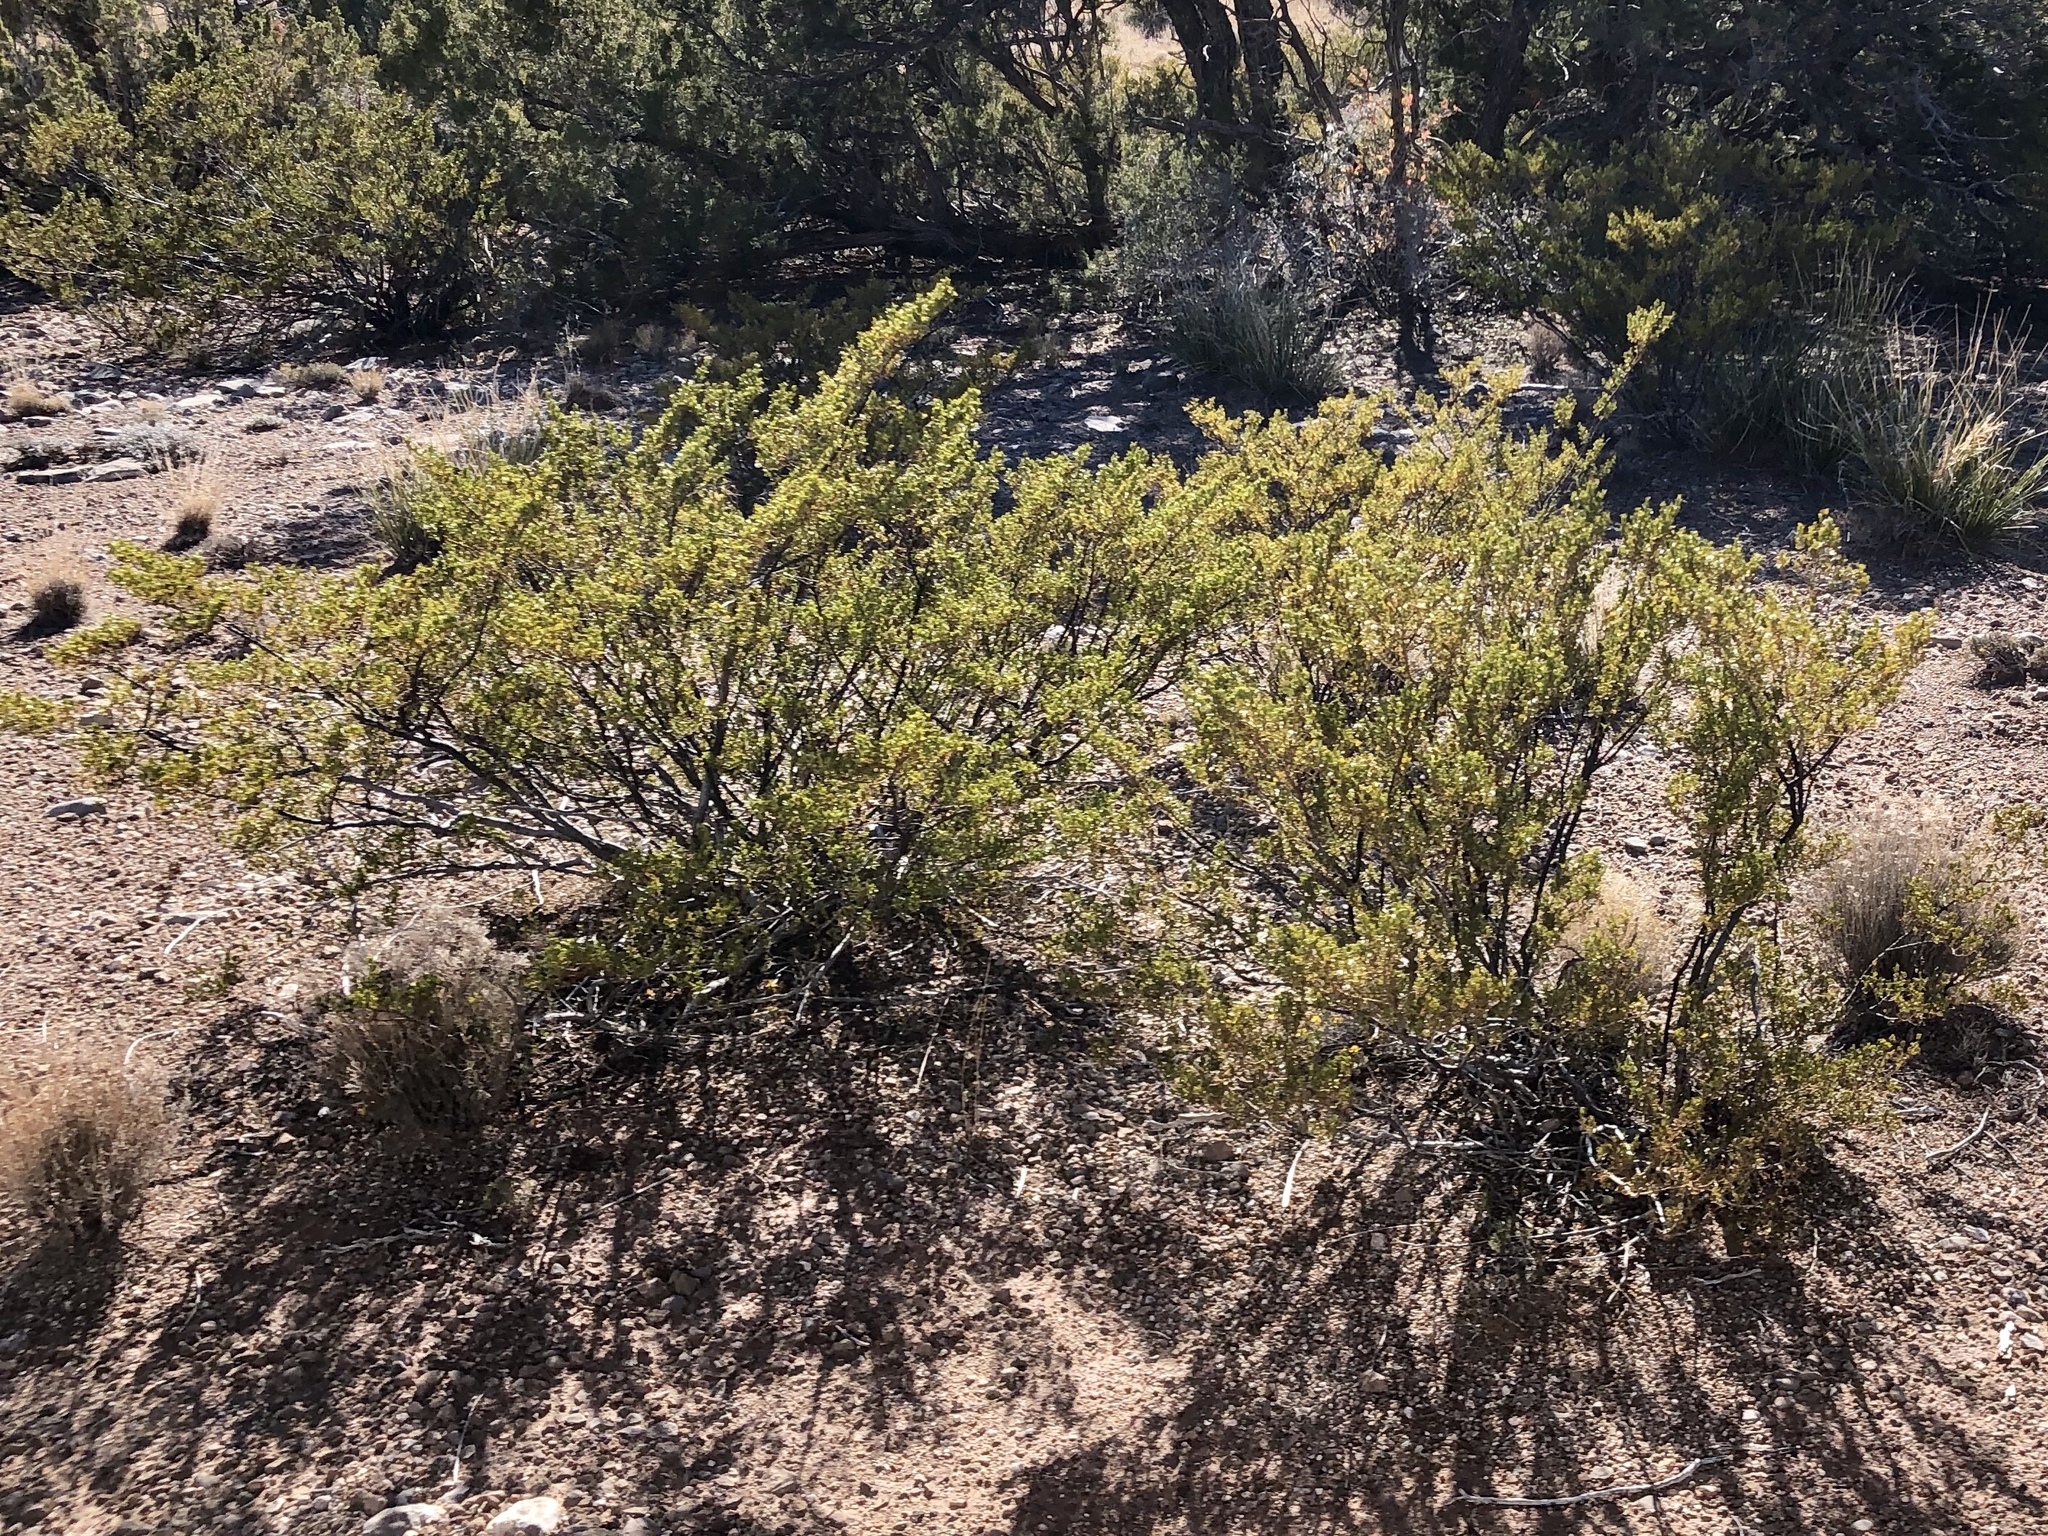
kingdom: Plantae
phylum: Tracheophyta
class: Magnoliopsida
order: Zygophyllales
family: Zygophyllaceae
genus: Larrea
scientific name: Larrea tridentata
